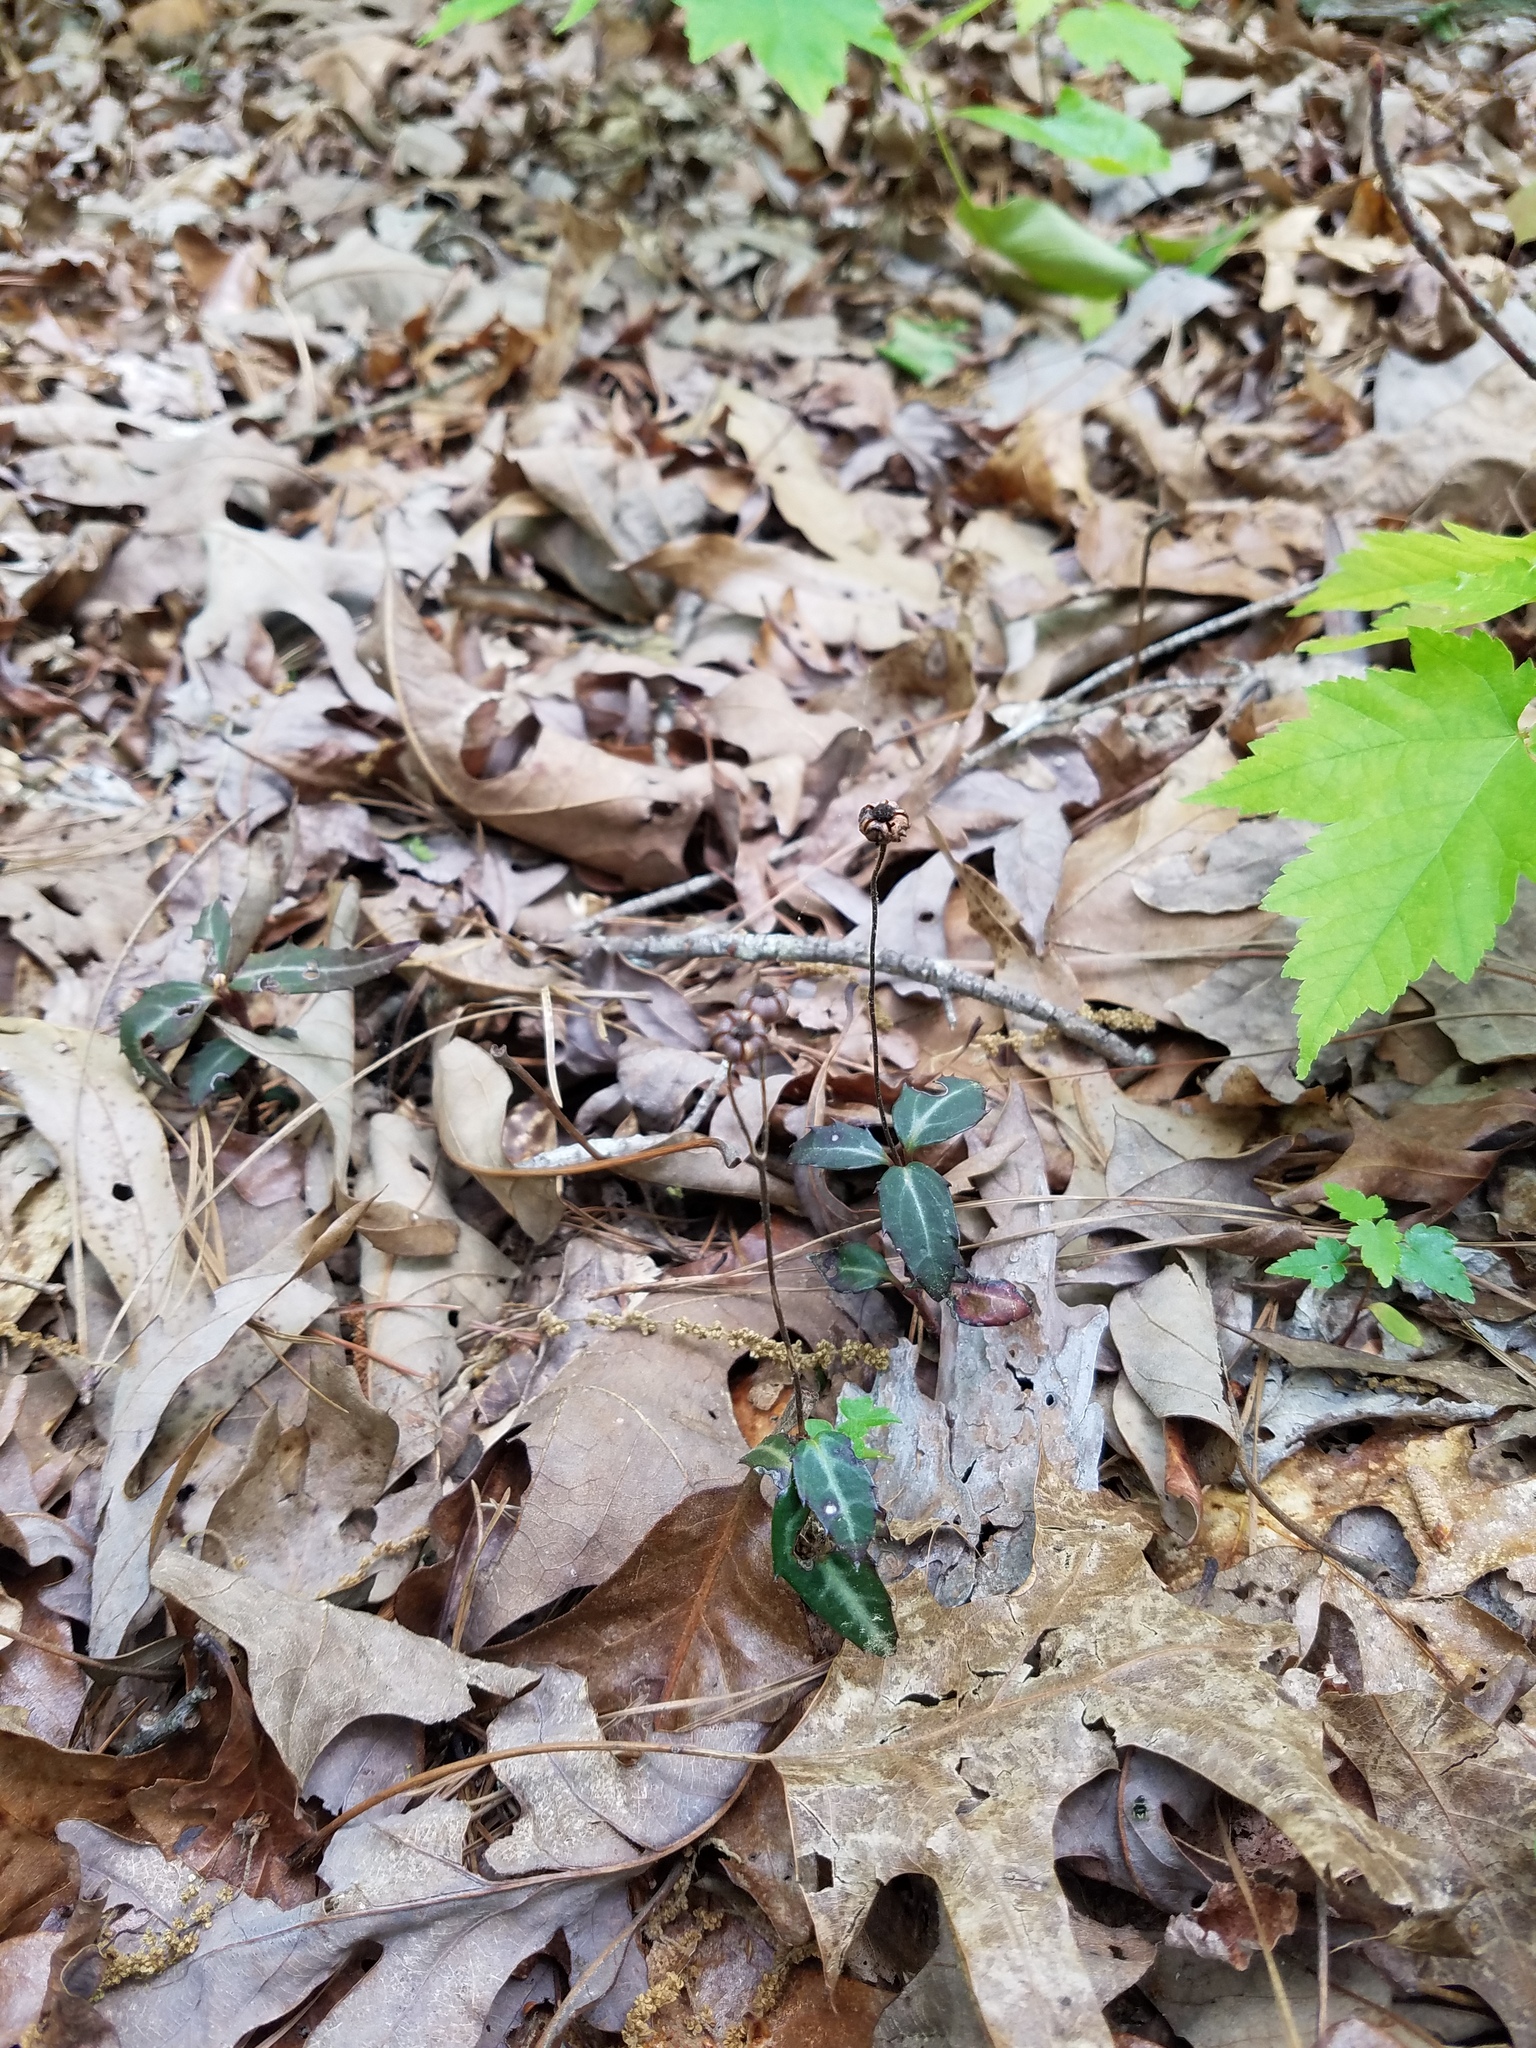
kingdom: Plantae
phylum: Tracheophyta
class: Magnoliopsida
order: Ericales
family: Ericaceae
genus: Chimaphila
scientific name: Chimaphila maculata
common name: Spotted pipsissewa
